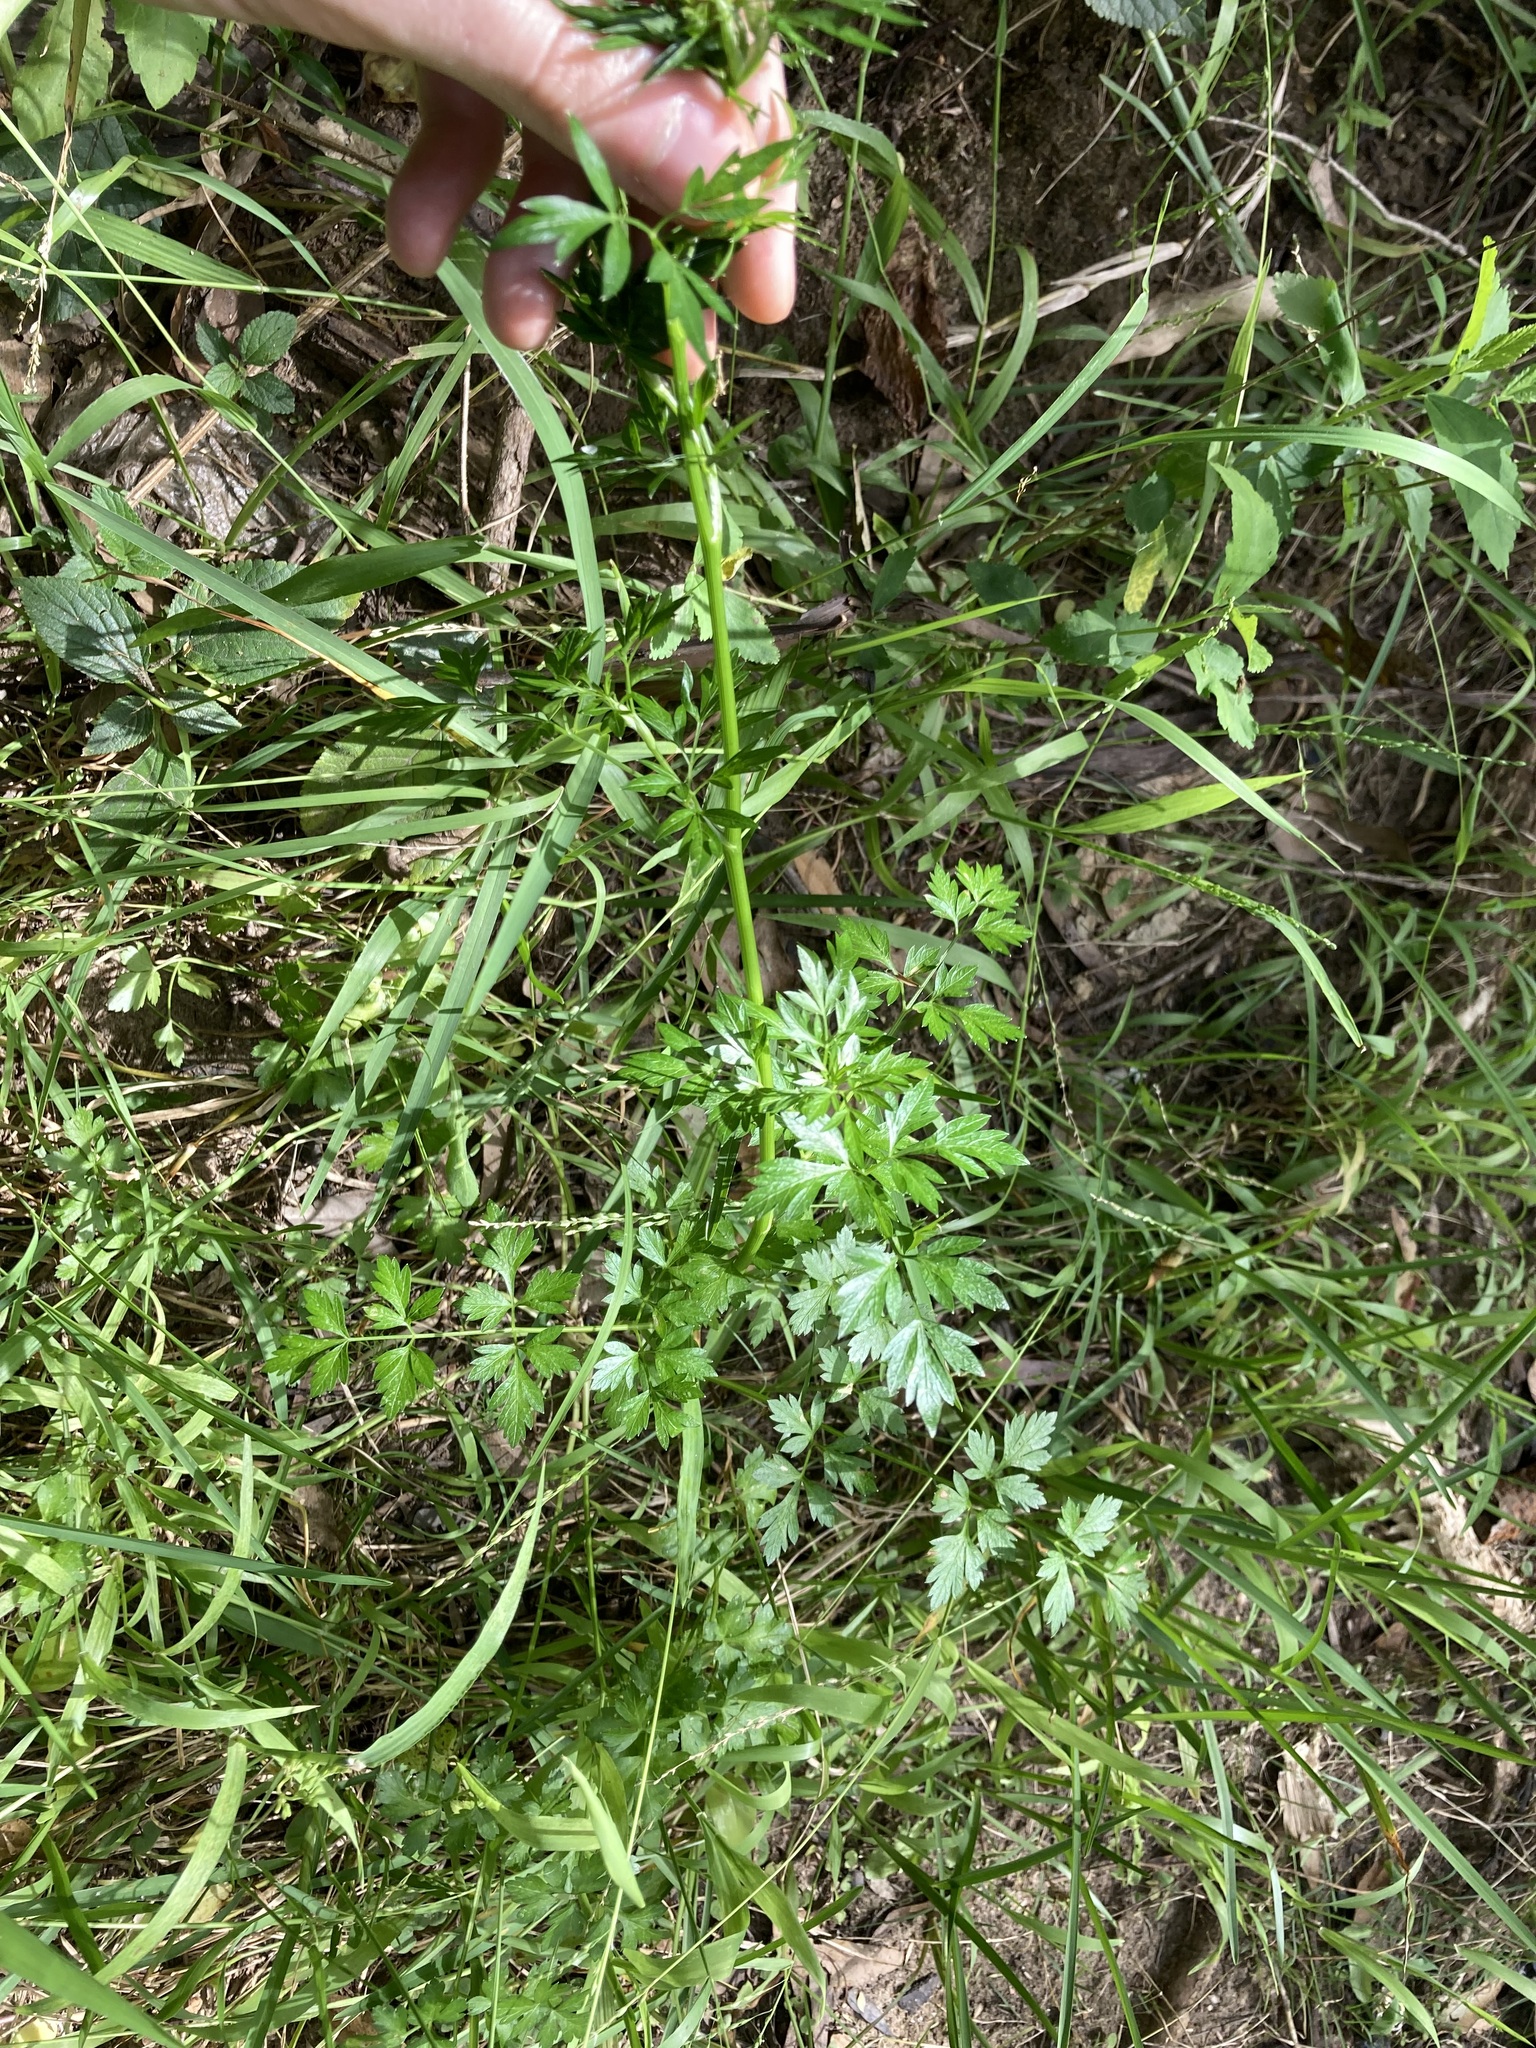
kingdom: Plantae
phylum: Tracheophyta
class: Magnoliopsida
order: Apiales
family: Apiaceae
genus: Petroselinum
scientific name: Petroselinum crispum
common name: Parsley
